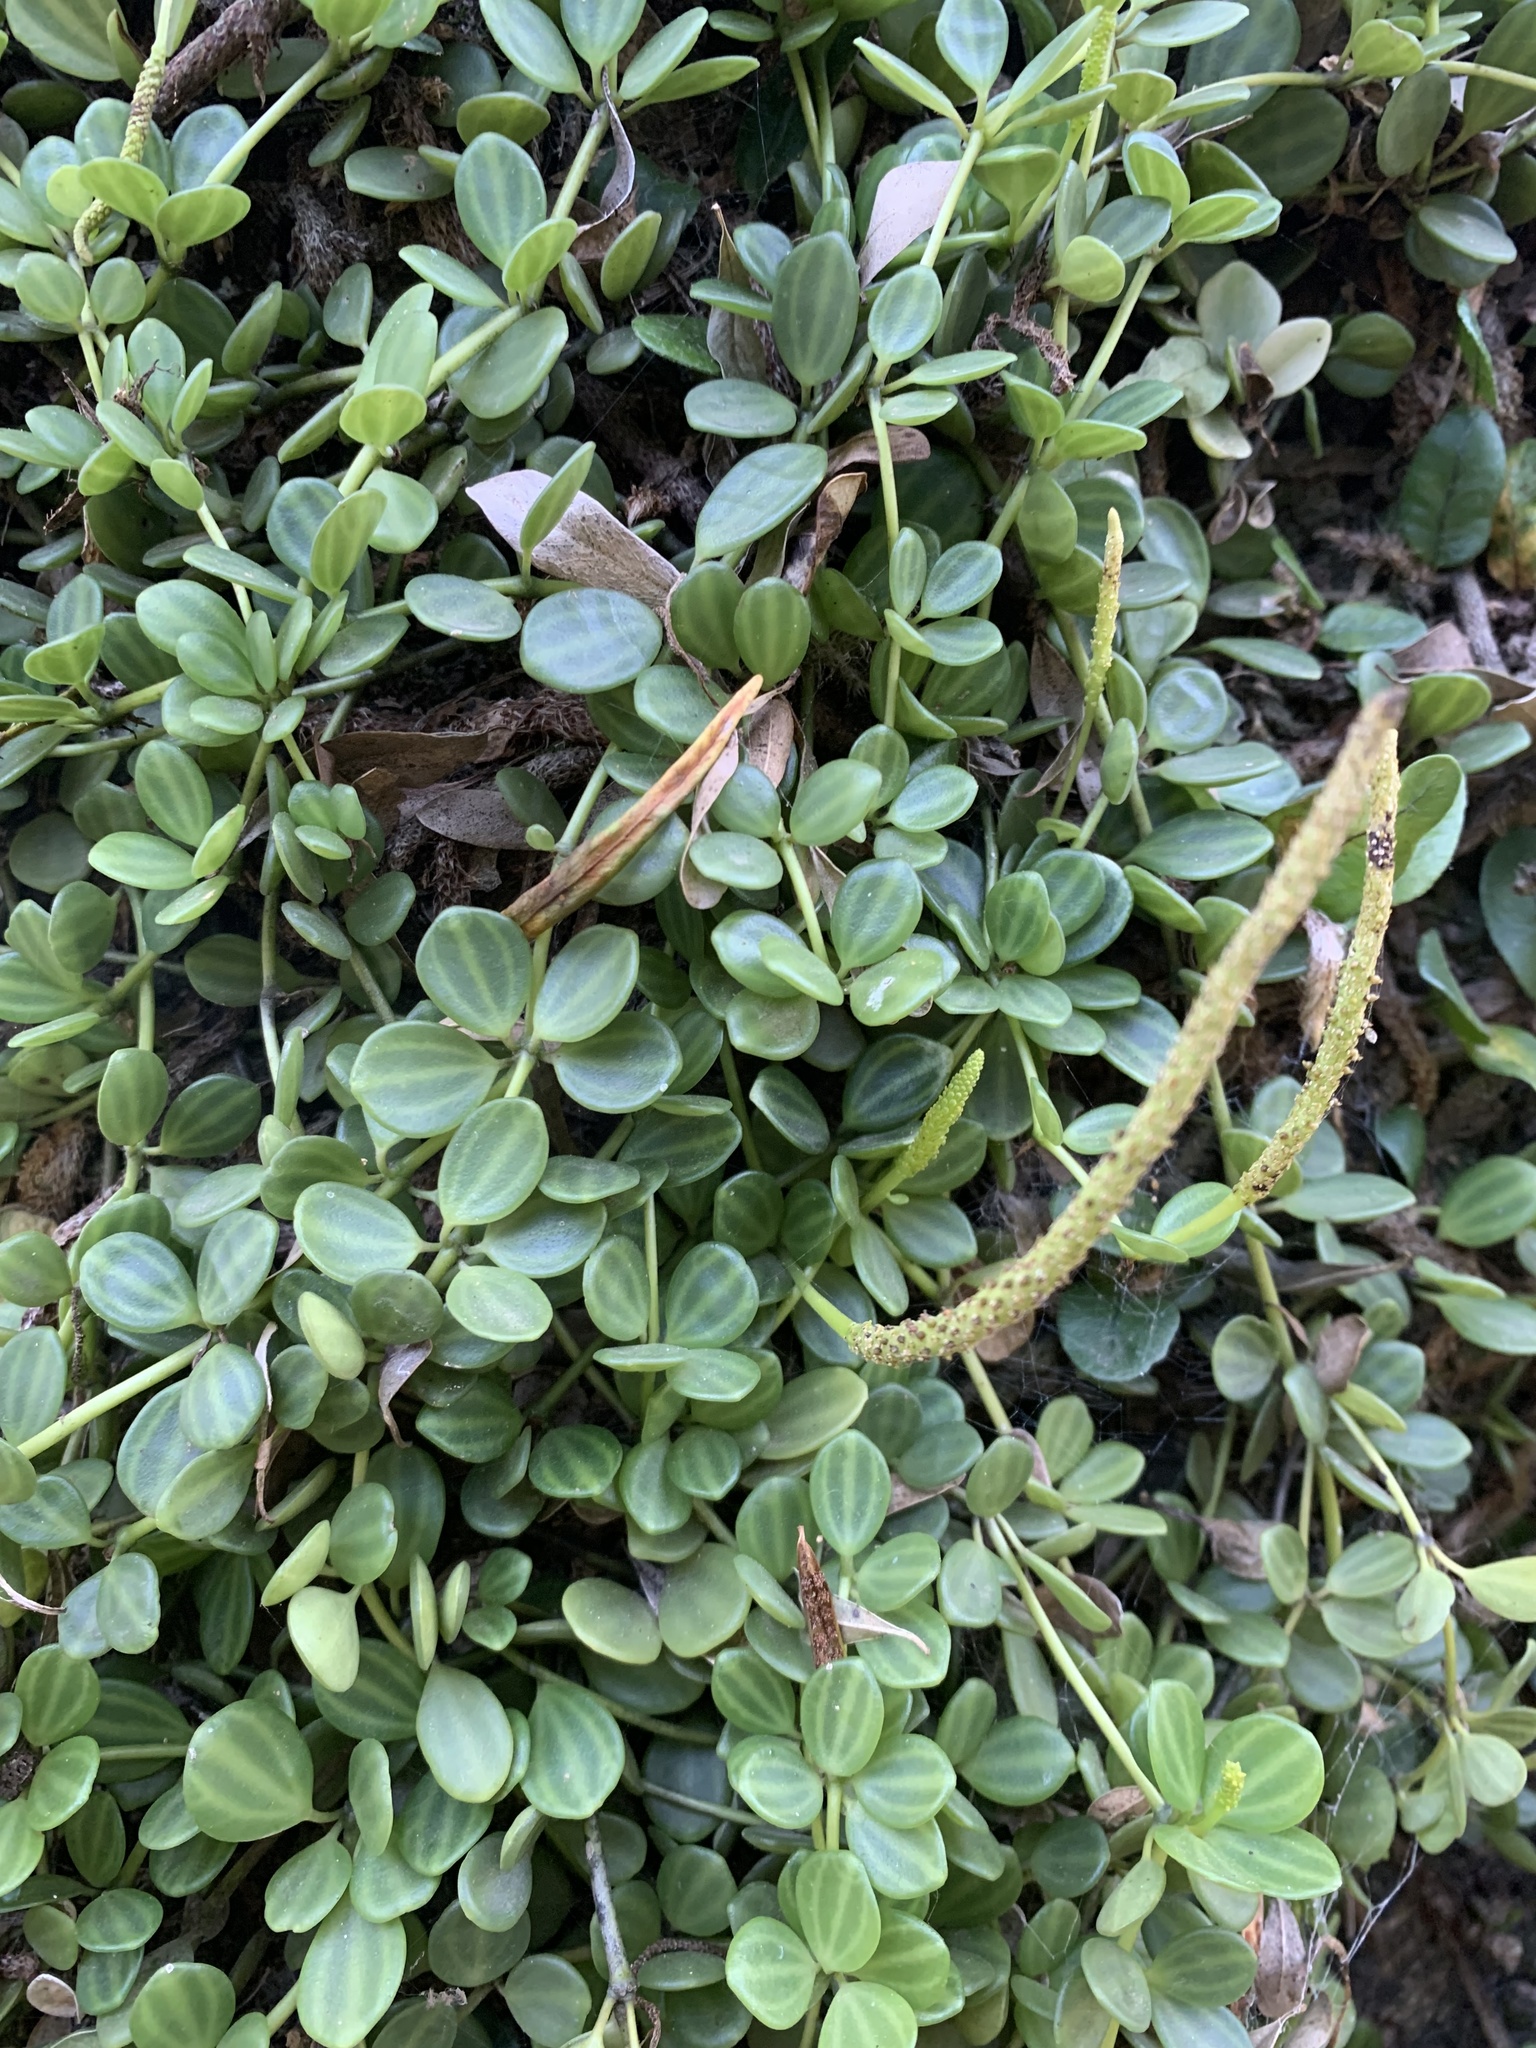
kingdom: Plantae
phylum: Tracheophyta
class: Magnoliopsida
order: Piperales
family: Piperaceae
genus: Peperomia
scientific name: Peperomia aceroana
